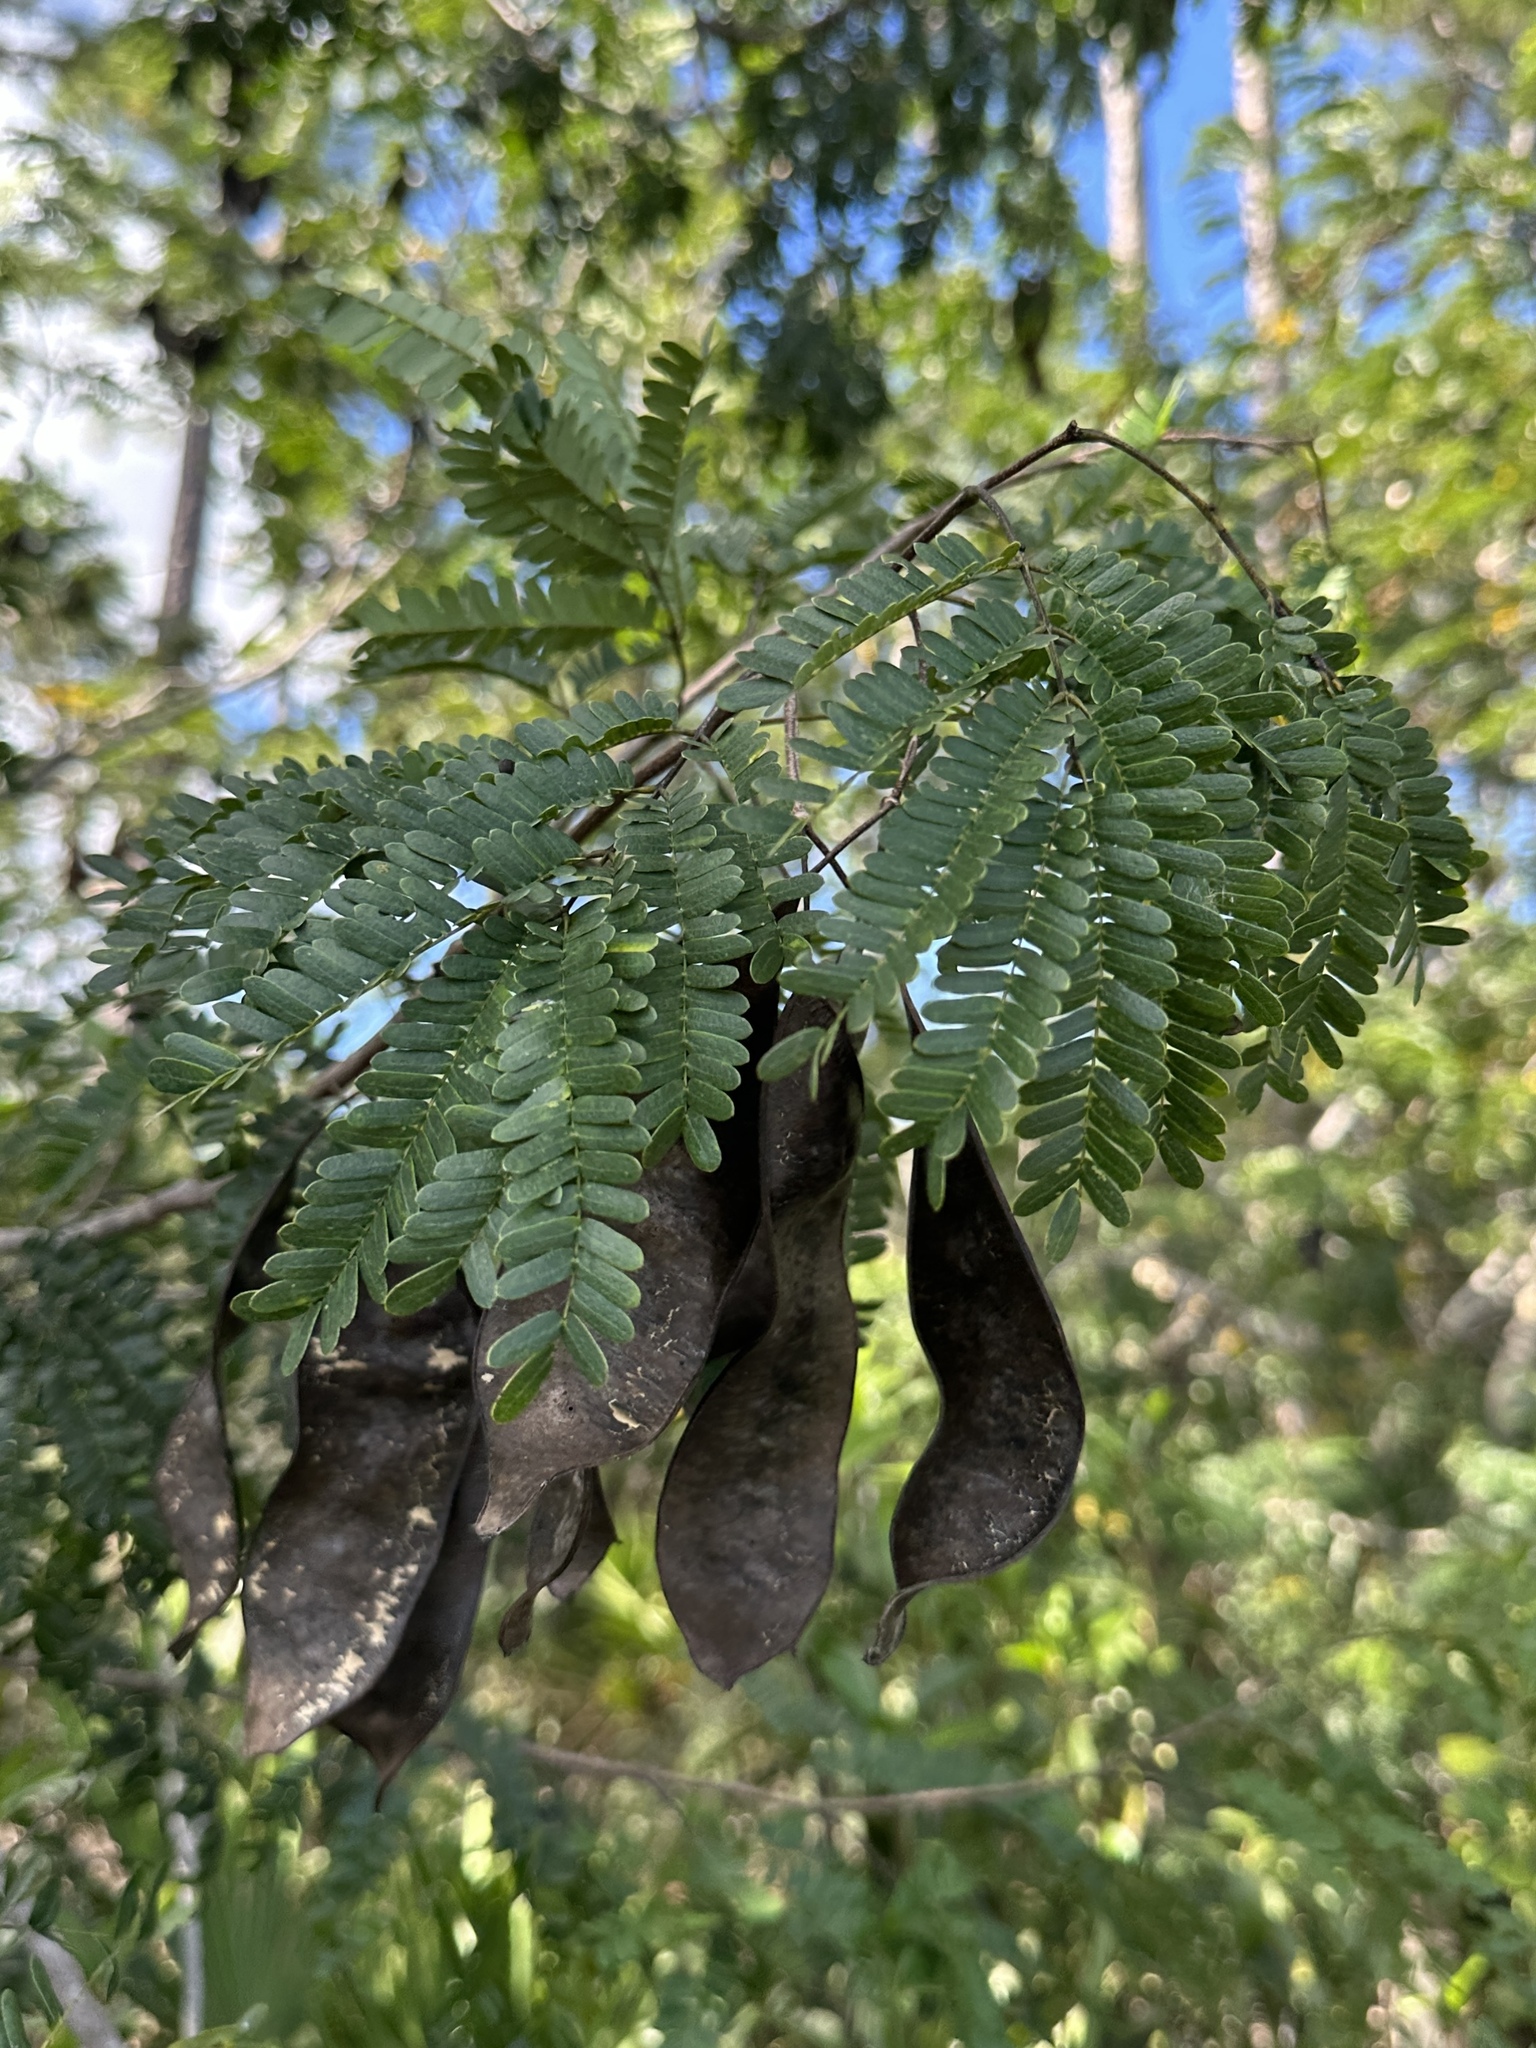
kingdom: Plantae
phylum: Tracheophyta
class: Magnoliopsida
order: Fabales
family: Fabaceae
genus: Lysiloma
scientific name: Lysiloma latisiliquum
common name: Wild tamarind
